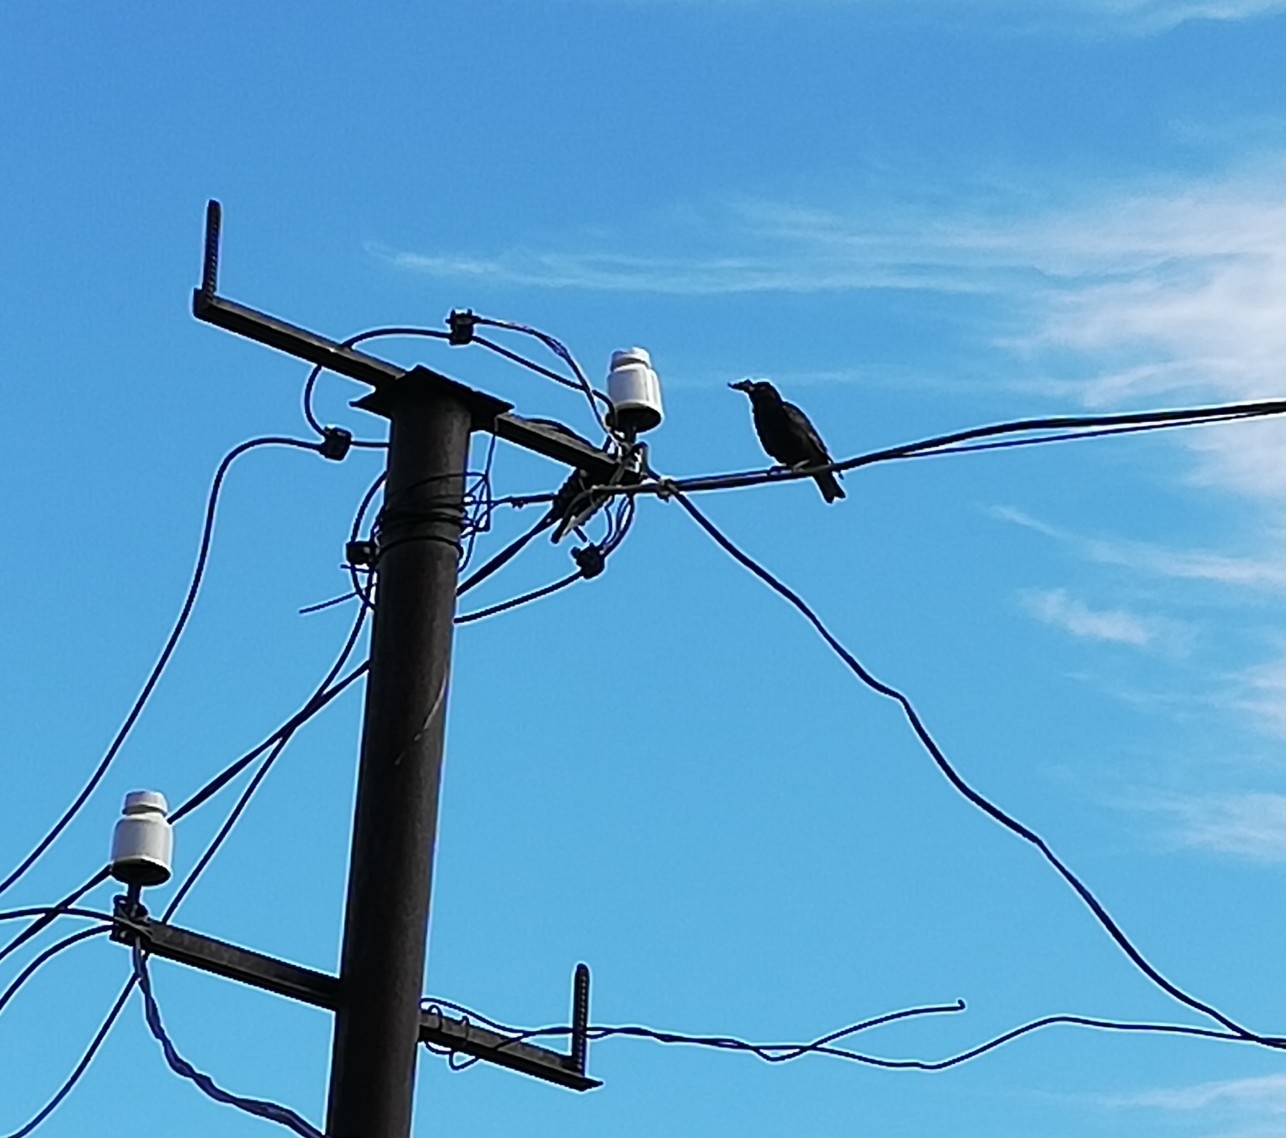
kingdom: Animalia
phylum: Chordata
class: Aves
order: Passeriformes
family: Sturnidae
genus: Sturnus
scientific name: Sturnus vulgaris
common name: Common starling
